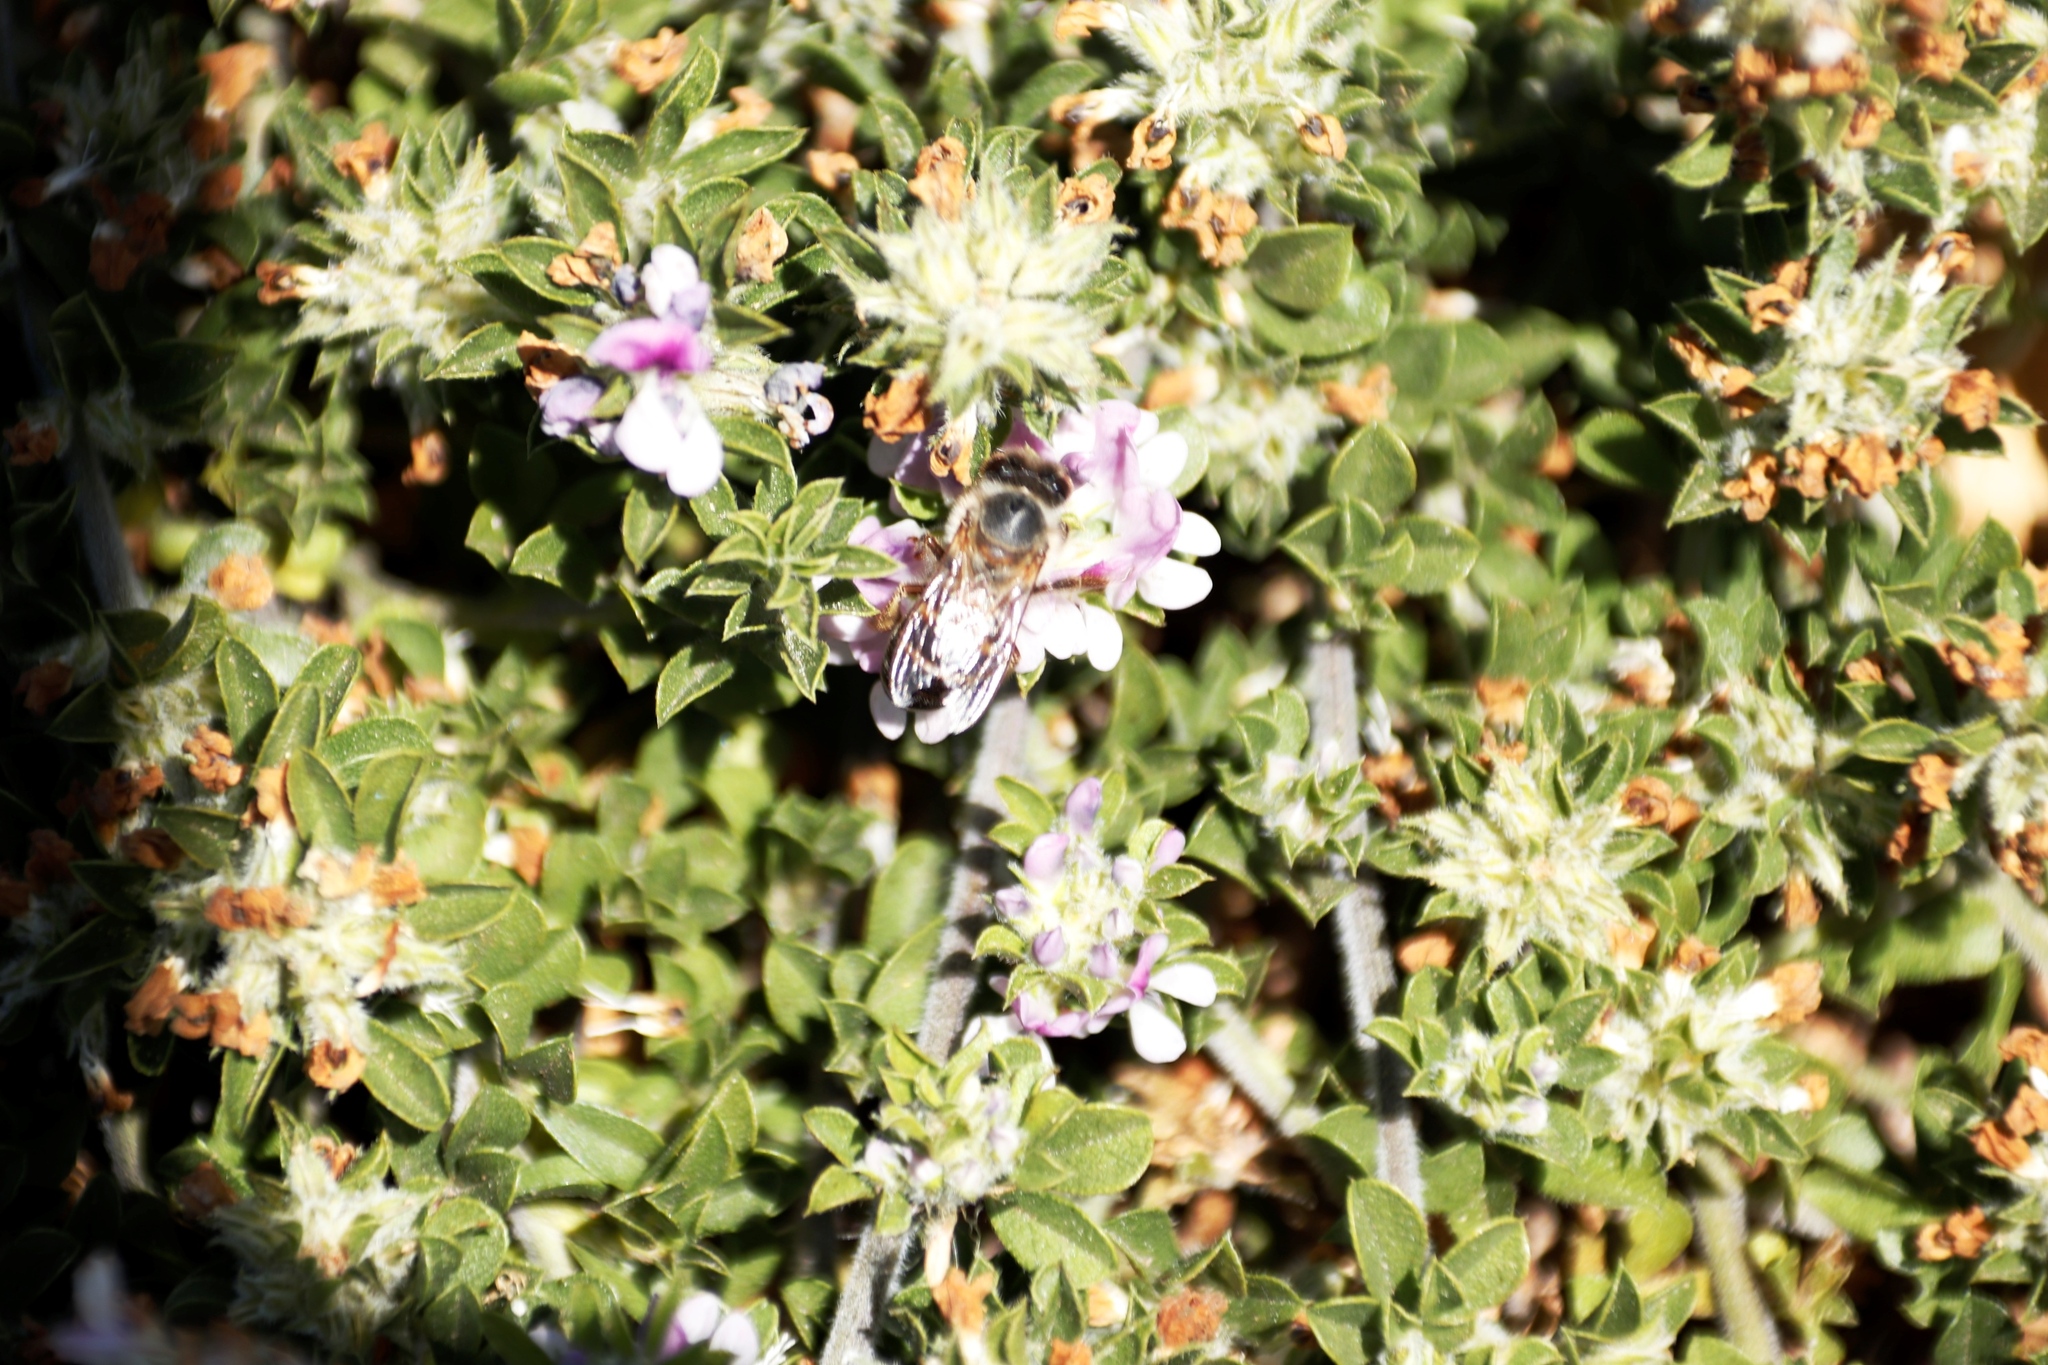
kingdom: Plantae
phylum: Tracheophyta
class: Magnoliopsida
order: Fabales
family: Fabaceae
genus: Psoralea
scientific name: Psoralea
